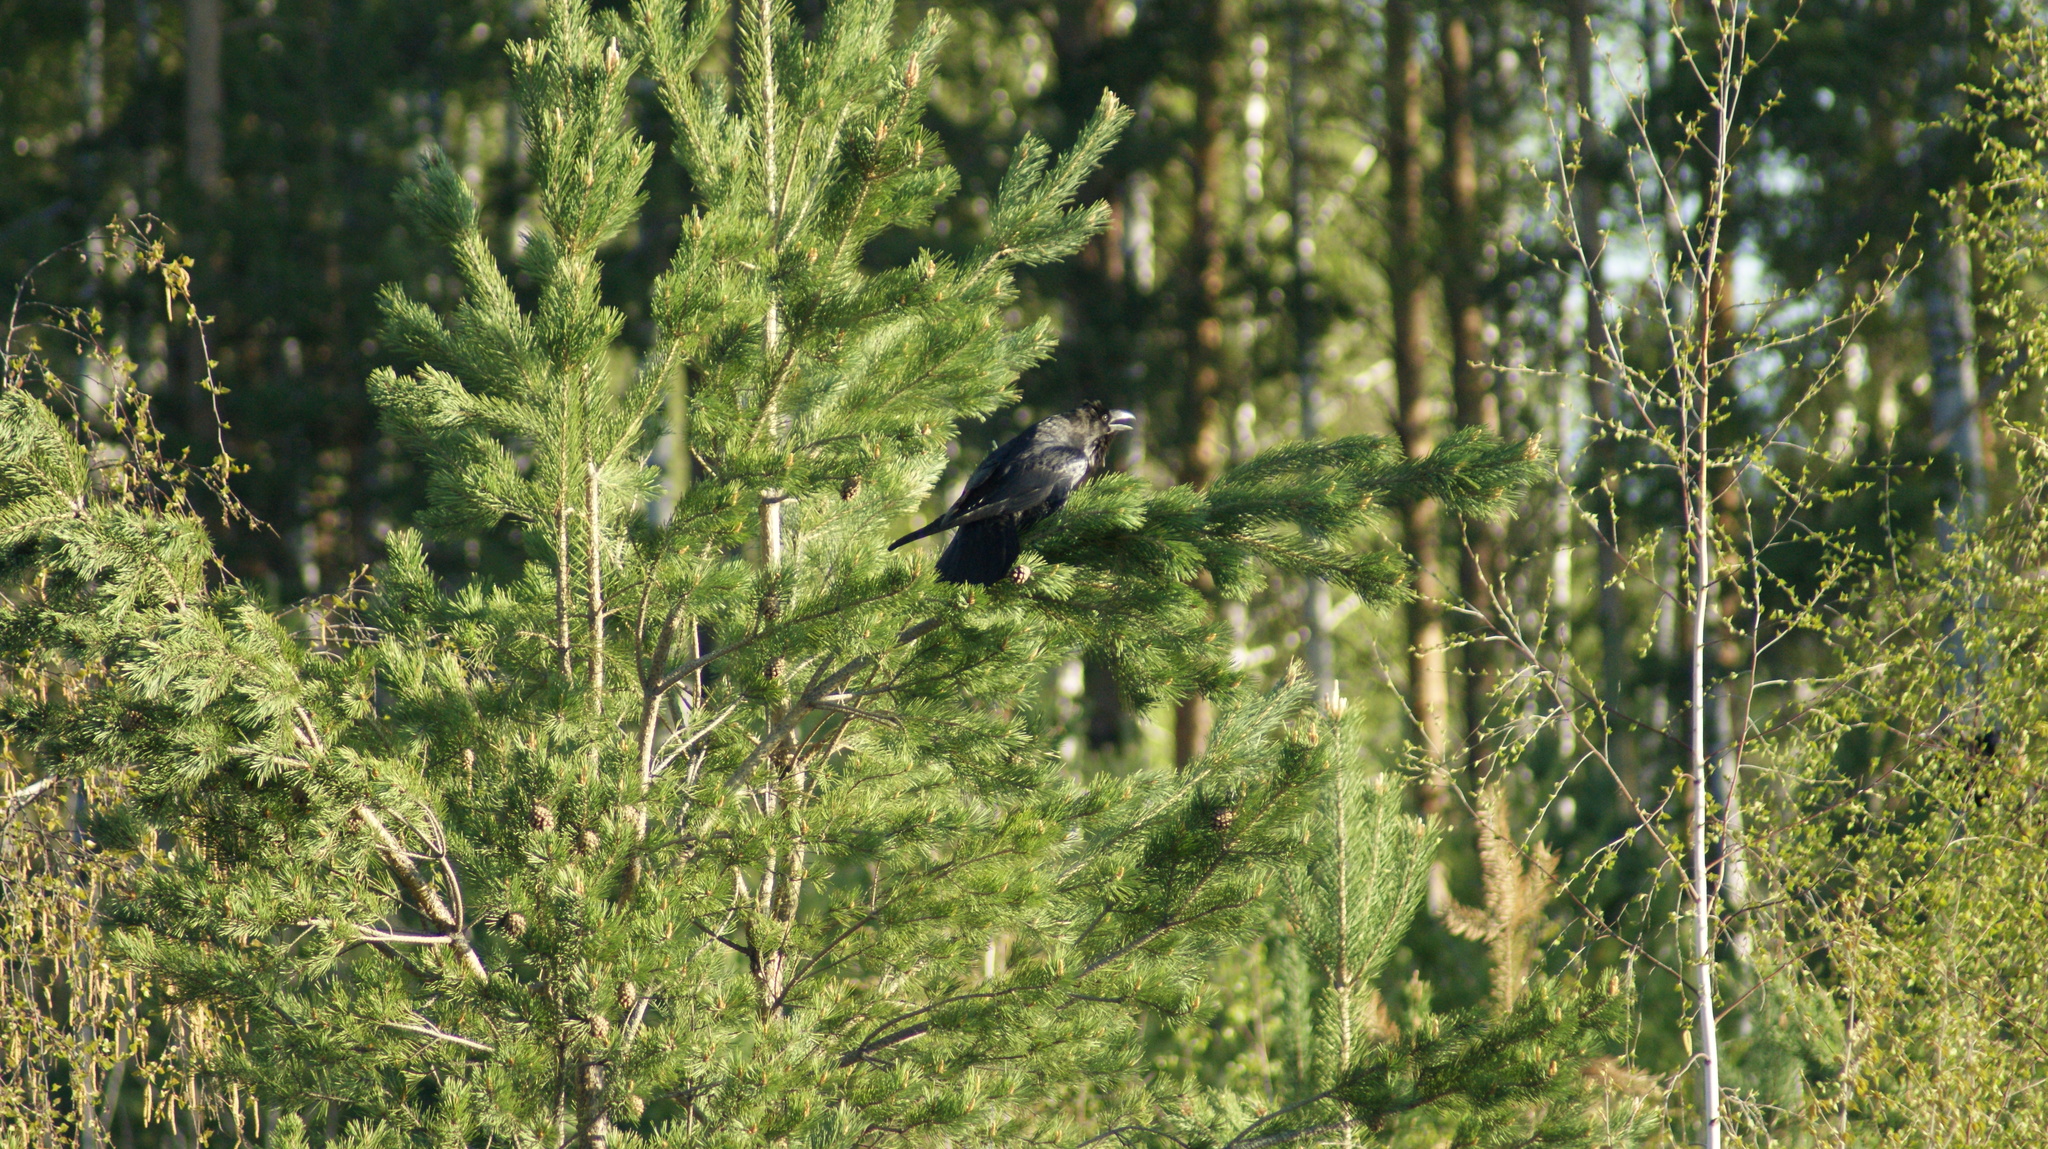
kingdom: Animalia
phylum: Chordata
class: Aves
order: Passeriformes
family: Corvidae
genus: Corvus
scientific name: Corvus corax
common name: Common raven
